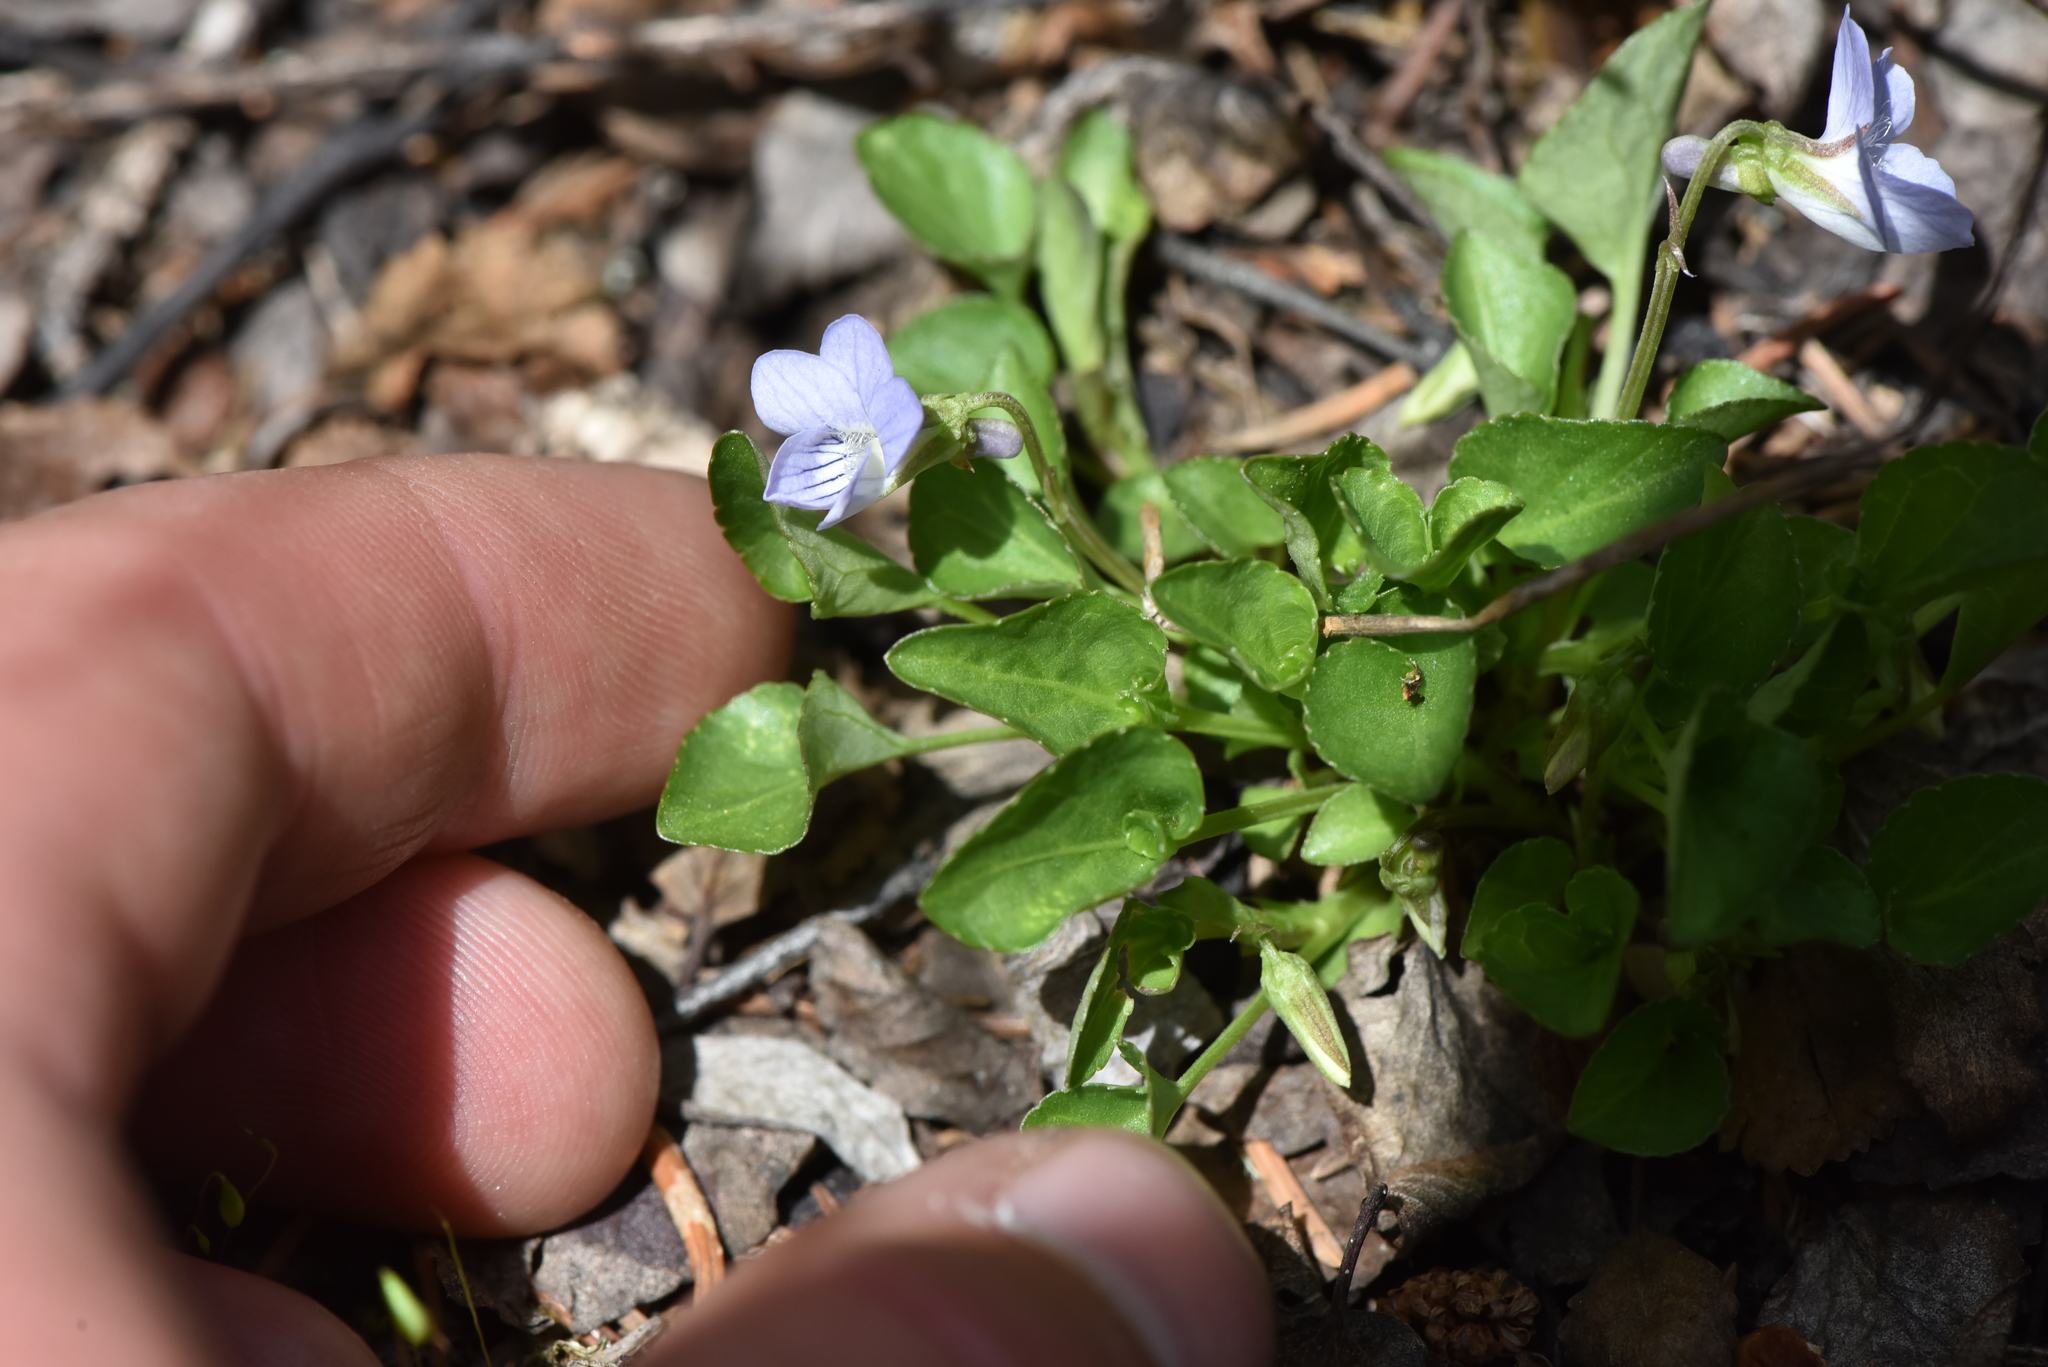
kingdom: Plantae
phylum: Tracheophyta
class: Magnoliopsida
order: Malpighiales
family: Violaceae
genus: Viola
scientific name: Viola adunca
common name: Sand violet
